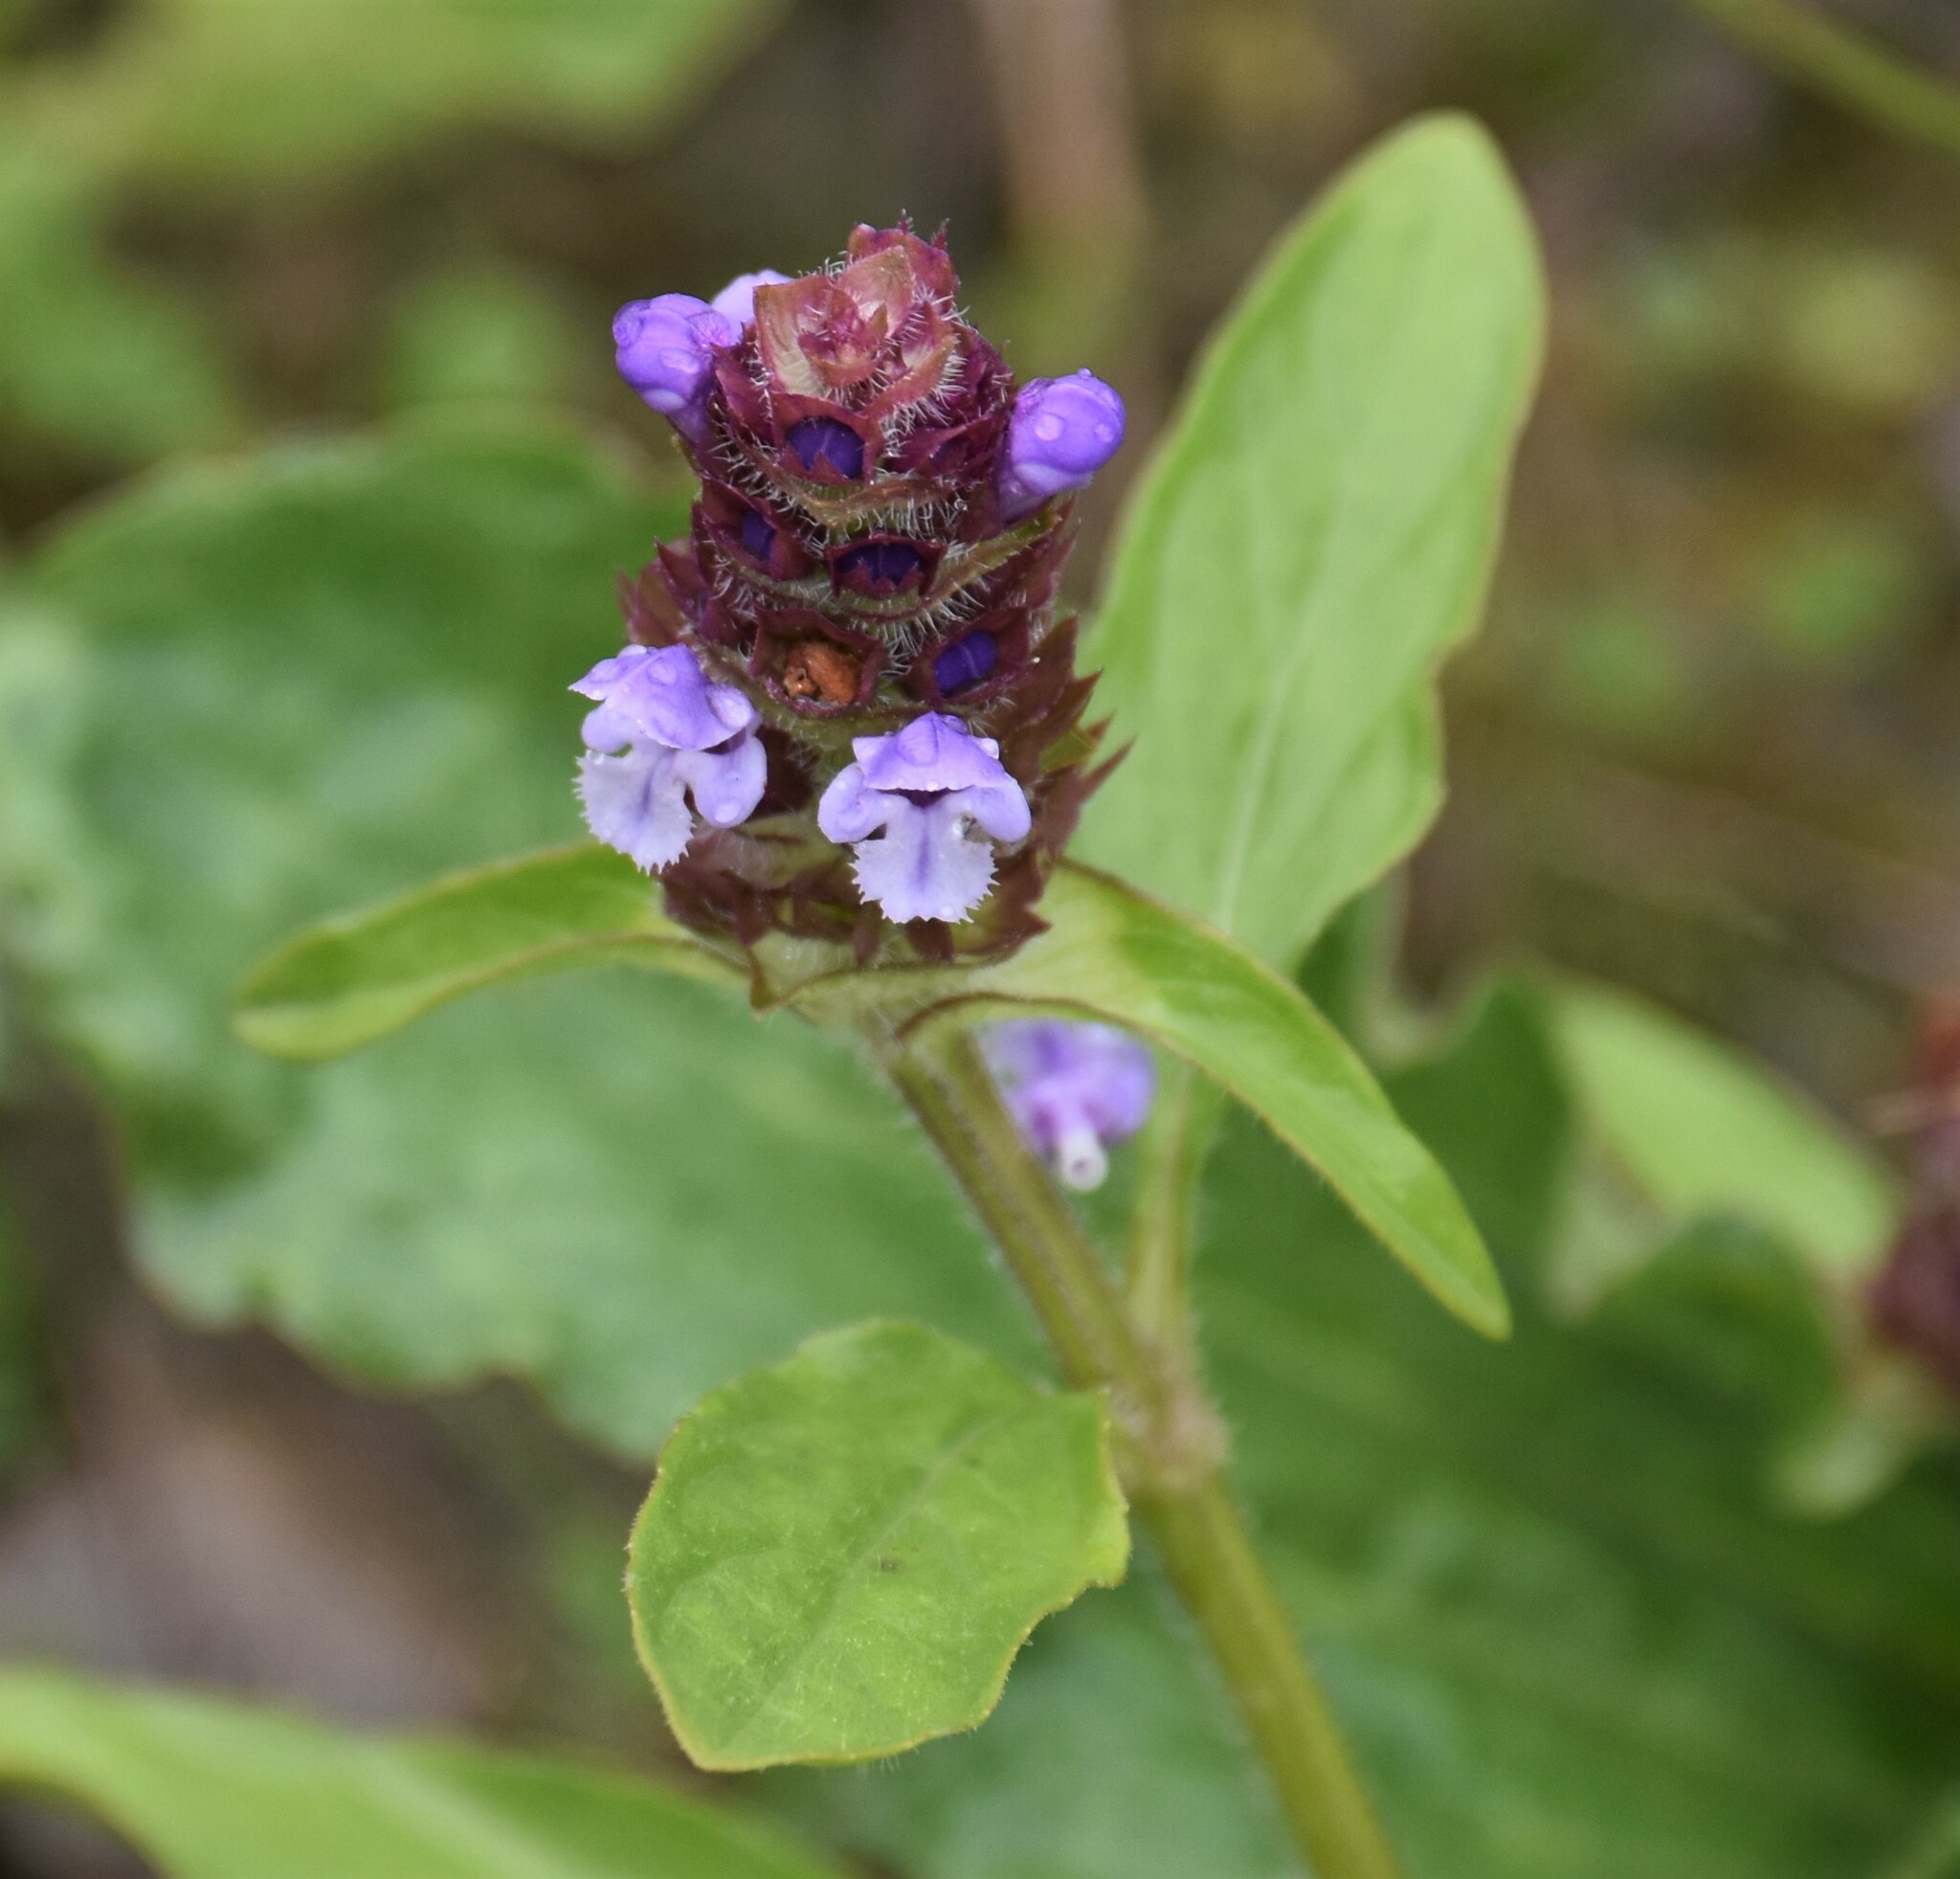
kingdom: Plantae
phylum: Tracheophyta
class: Magnoliopsida
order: Lamiales
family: Lamiaceae
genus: Prunella
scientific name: Prunella vulgaris
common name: Heal-all
